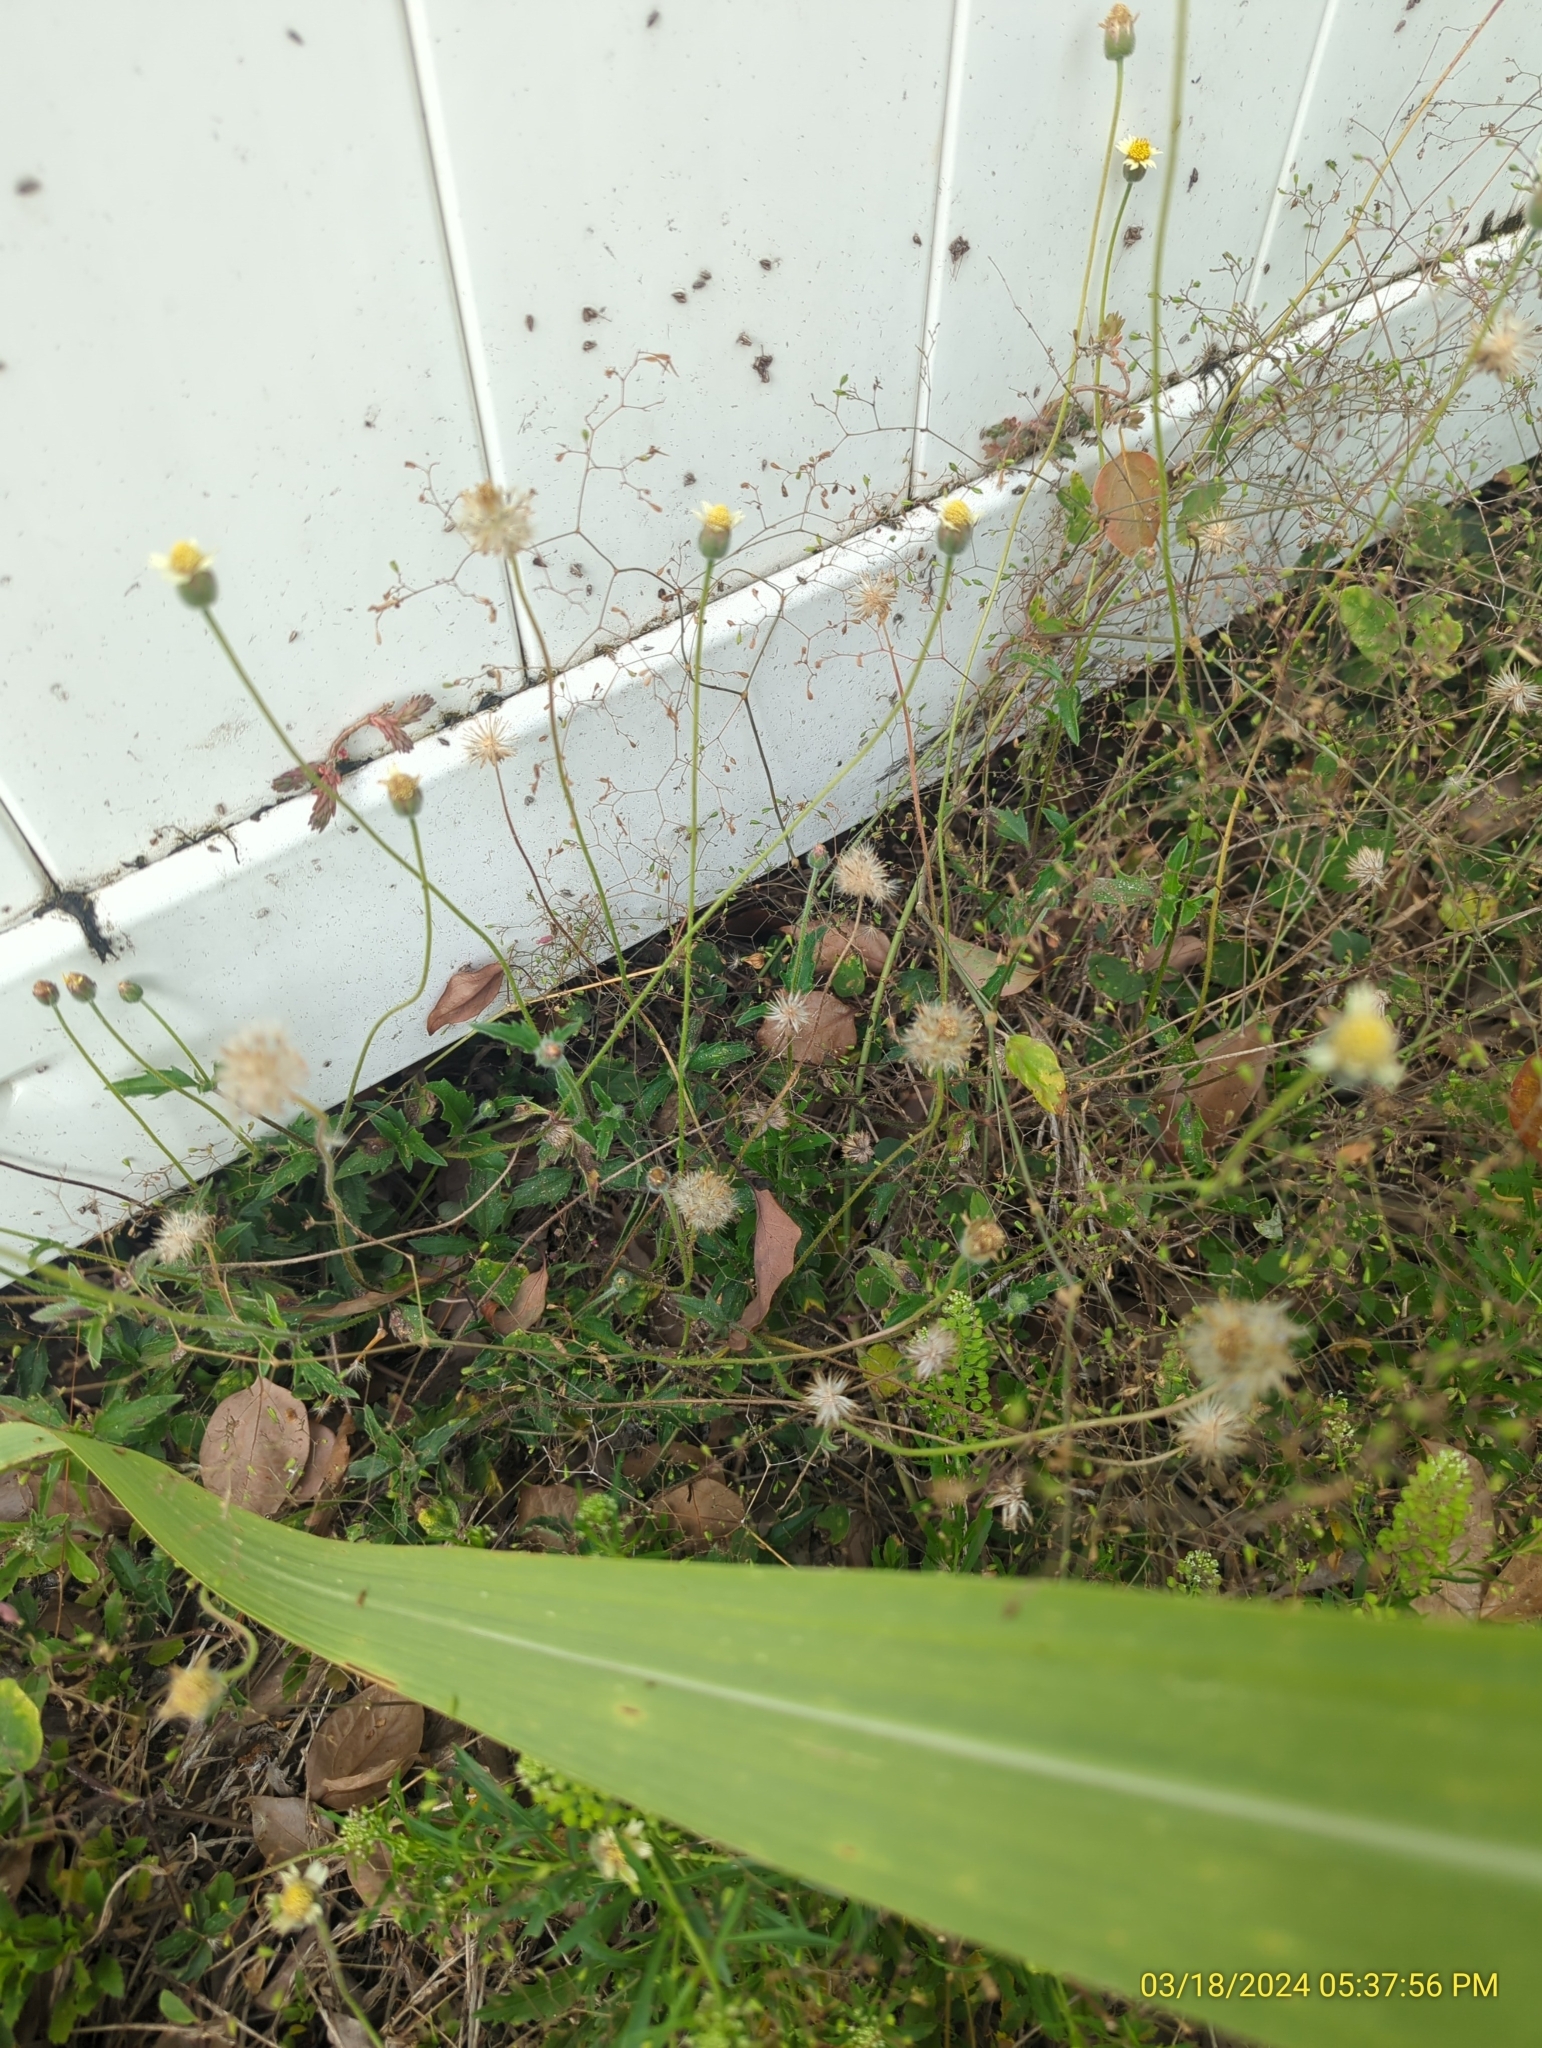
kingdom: Plantae
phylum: Tracheophyta
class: Magnoliopsida
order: Asterales
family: Asteraceae
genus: Tridax
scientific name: Tridax procumbens
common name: Coatbuttons
